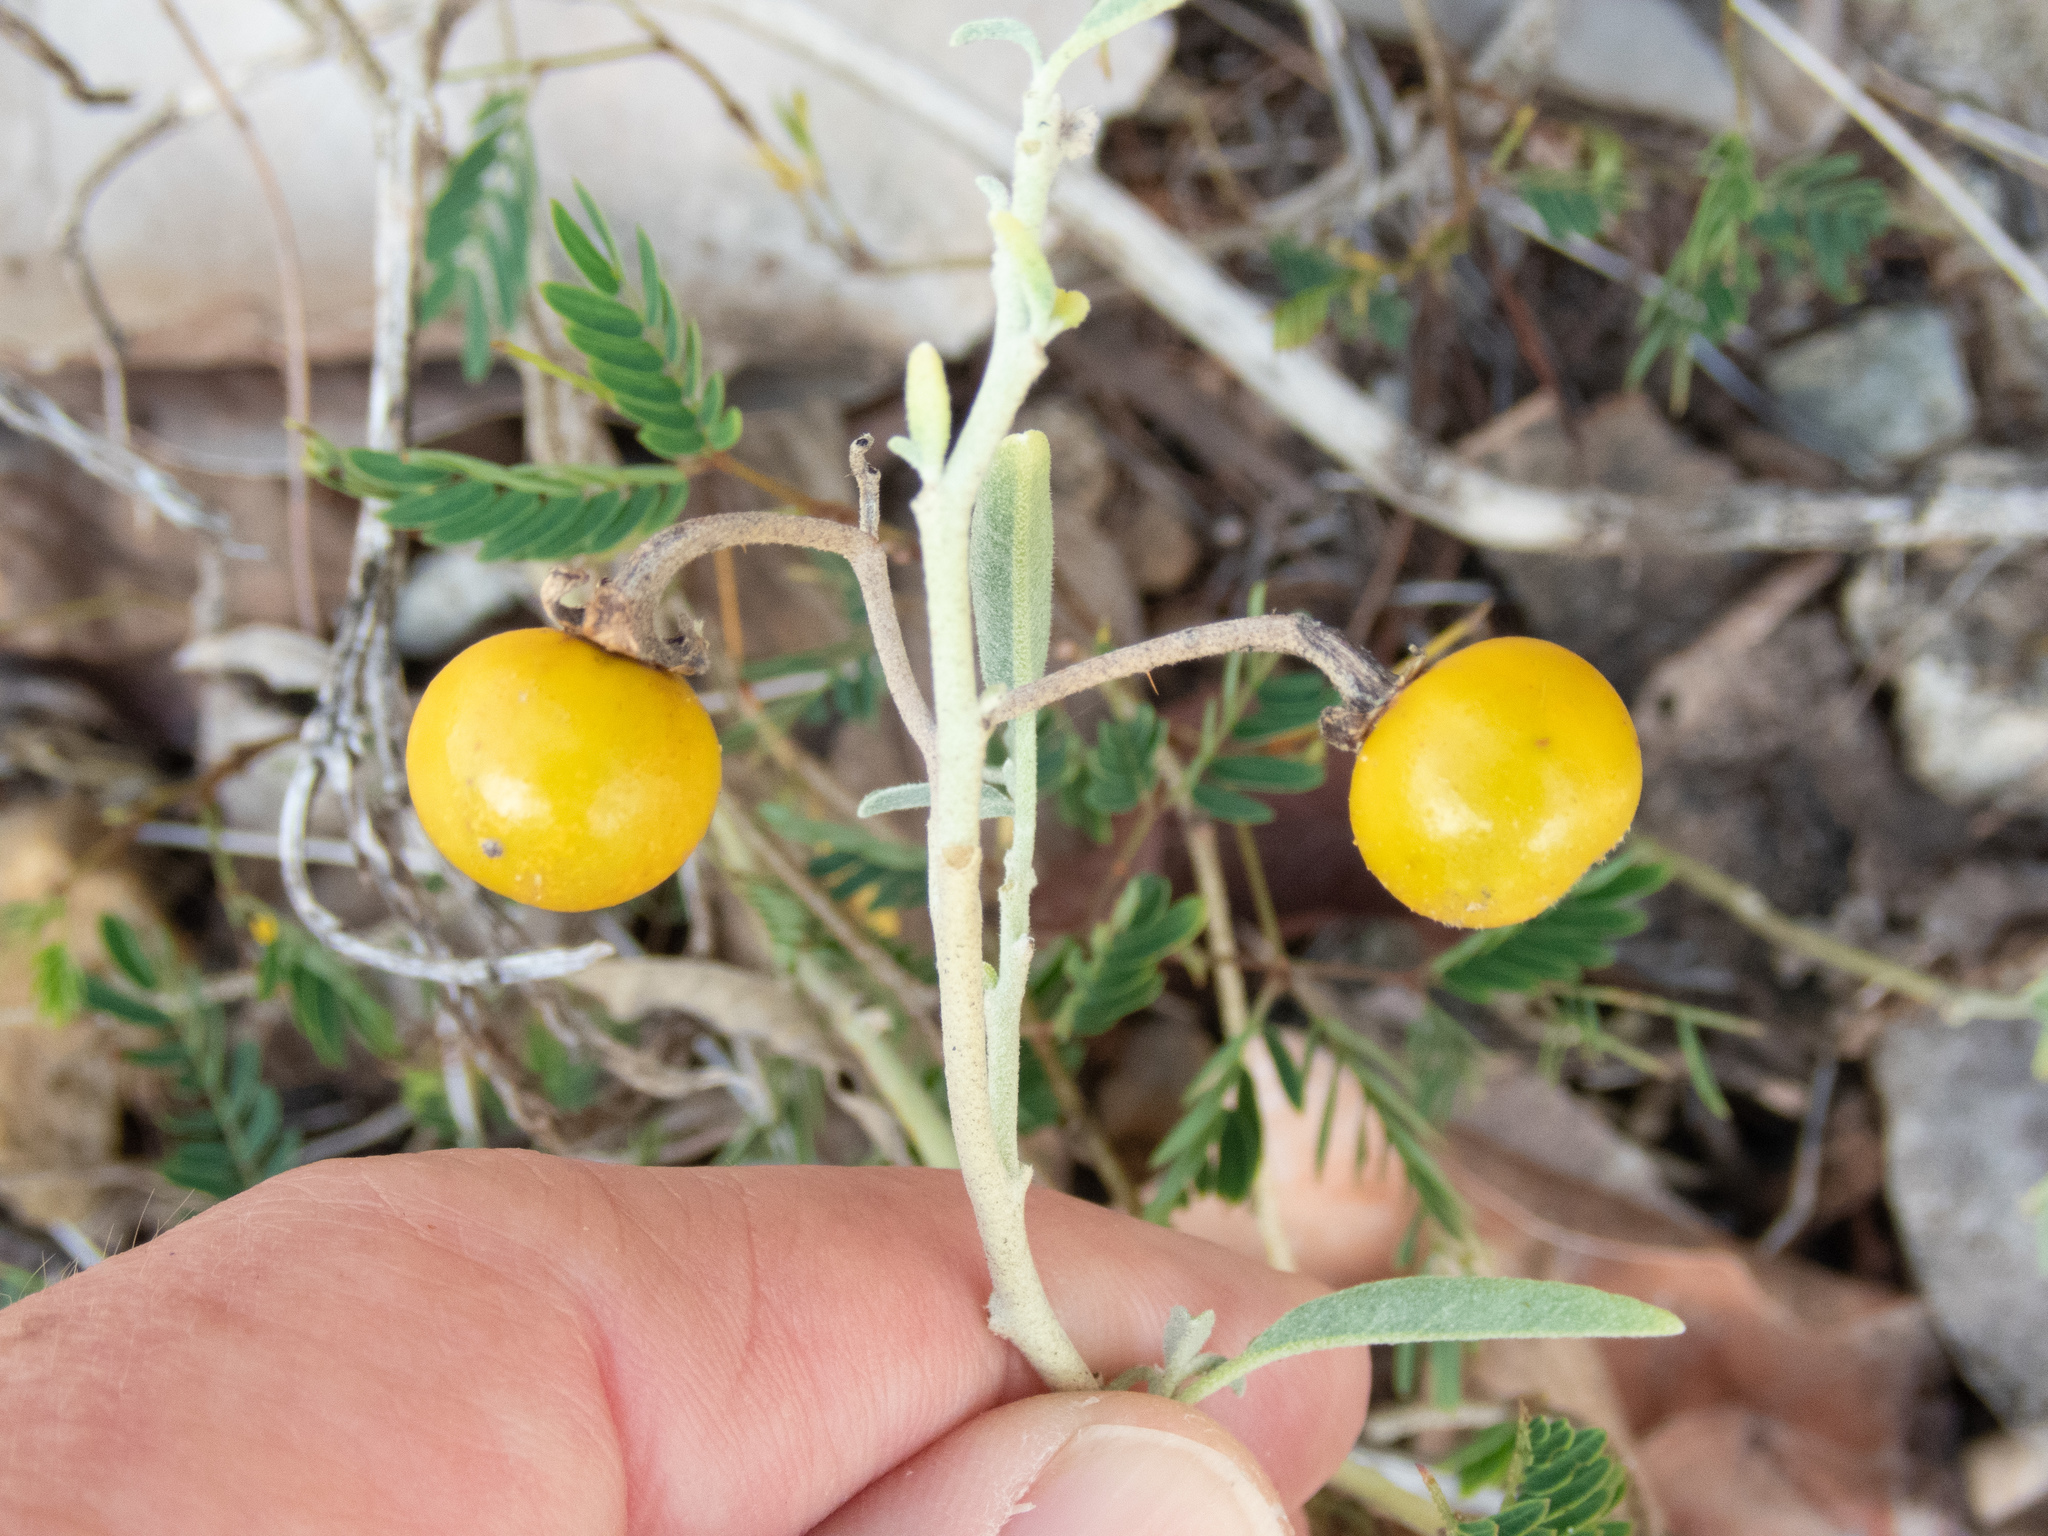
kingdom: Plantae
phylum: Tracheophyta
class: Magnoliopsida
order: Solanales
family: Solanaceae
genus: Solanum
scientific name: Solanum elaeagnifolium
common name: Silverleaf nightshade
